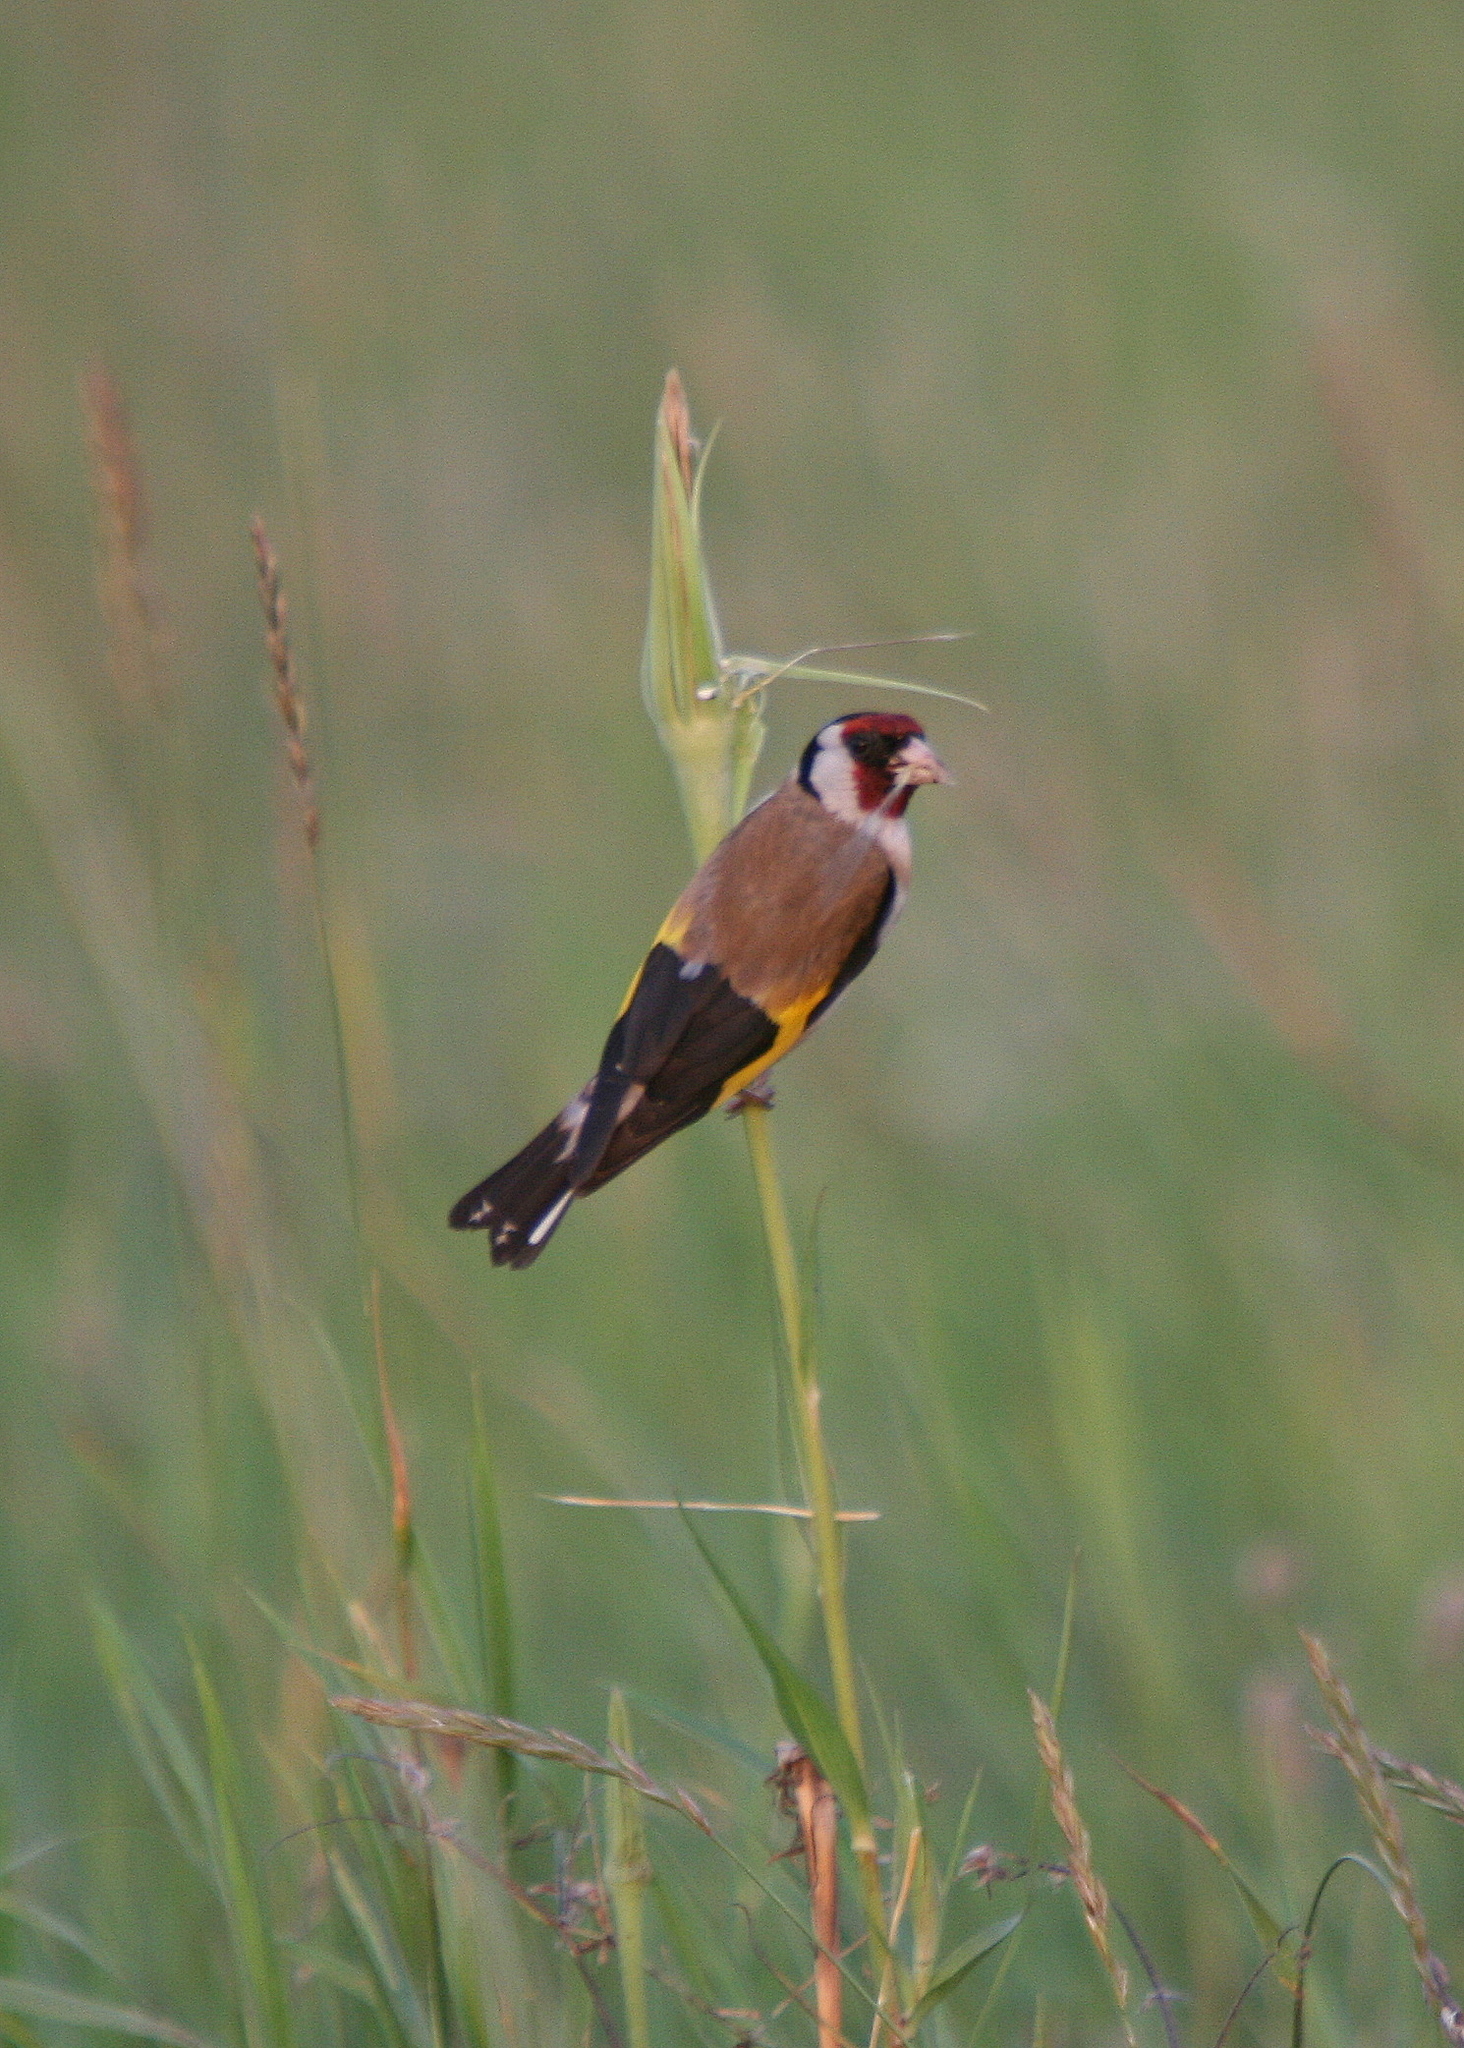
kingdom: Animalia
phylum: Chordata
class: Aves
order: Passeriformes
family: Fringillidae
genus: Carduelis
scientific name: Carduelis carduelis
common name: European goldfinch
